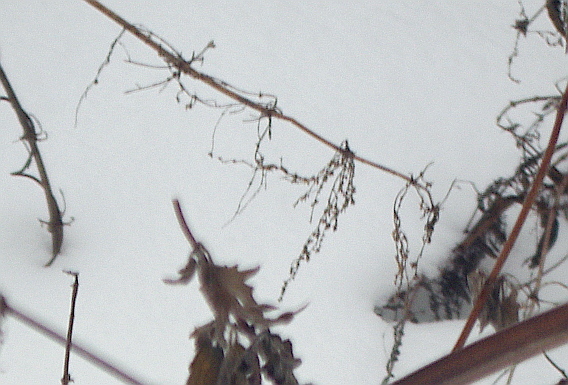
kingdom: Plantae
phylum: Tracheophyta
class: Magnoliopsida
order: Rosales
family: Urticaceae
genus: Urtica
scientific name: Urtica dioica
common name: Common nettle
